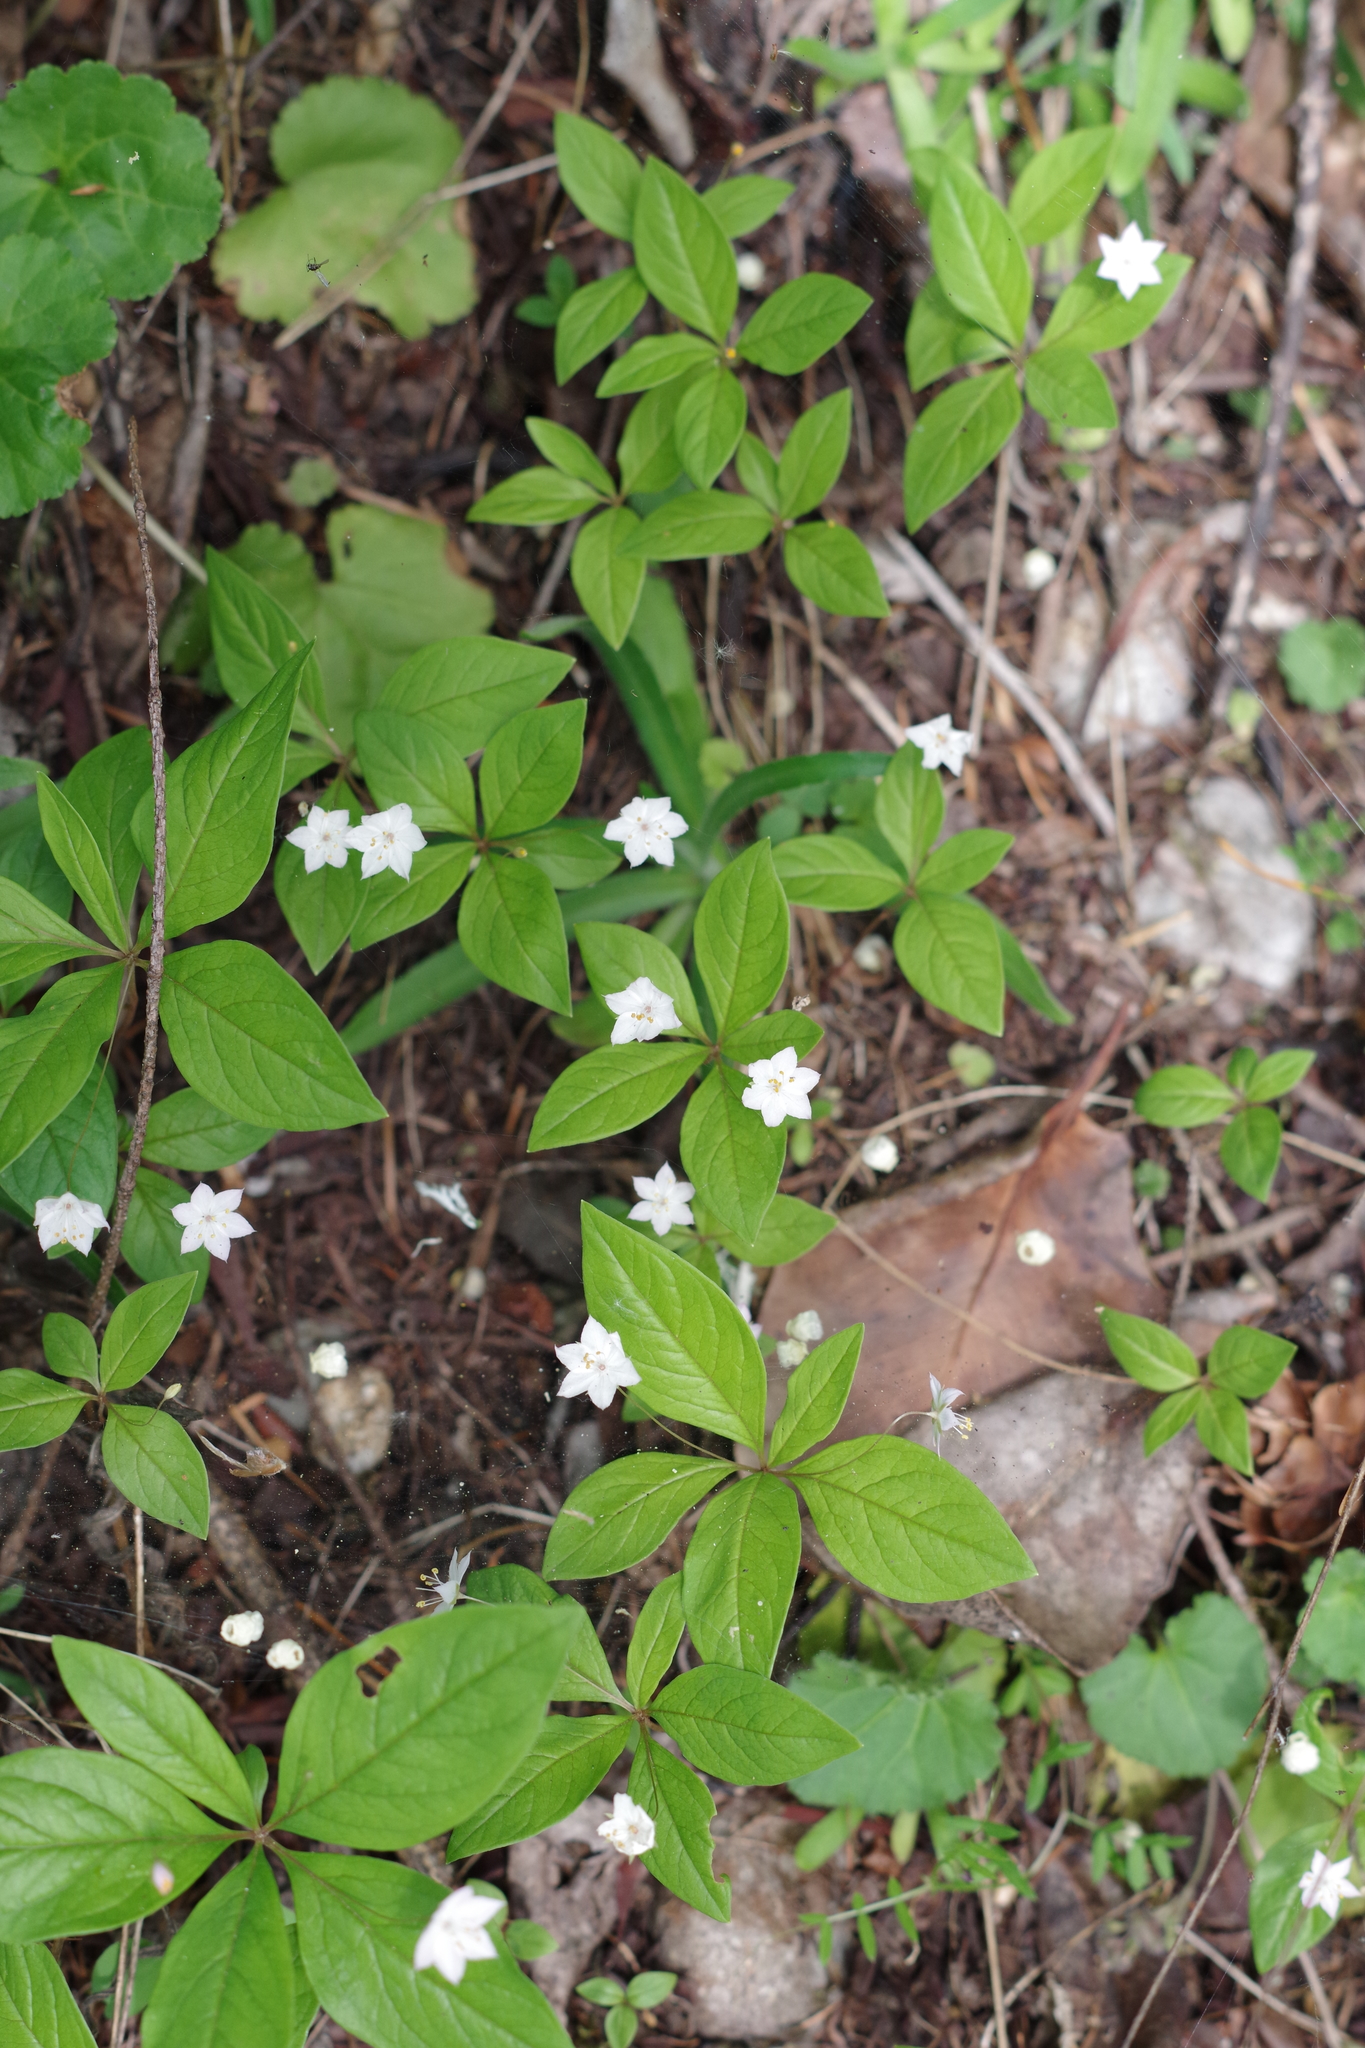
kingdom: Plantae
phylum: Tracheophyta
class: Magnoliopsida
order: Ericales
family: Primulaceae
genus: Lysimachia
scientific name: Lysimachia latifolia
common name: Pacific starflower
